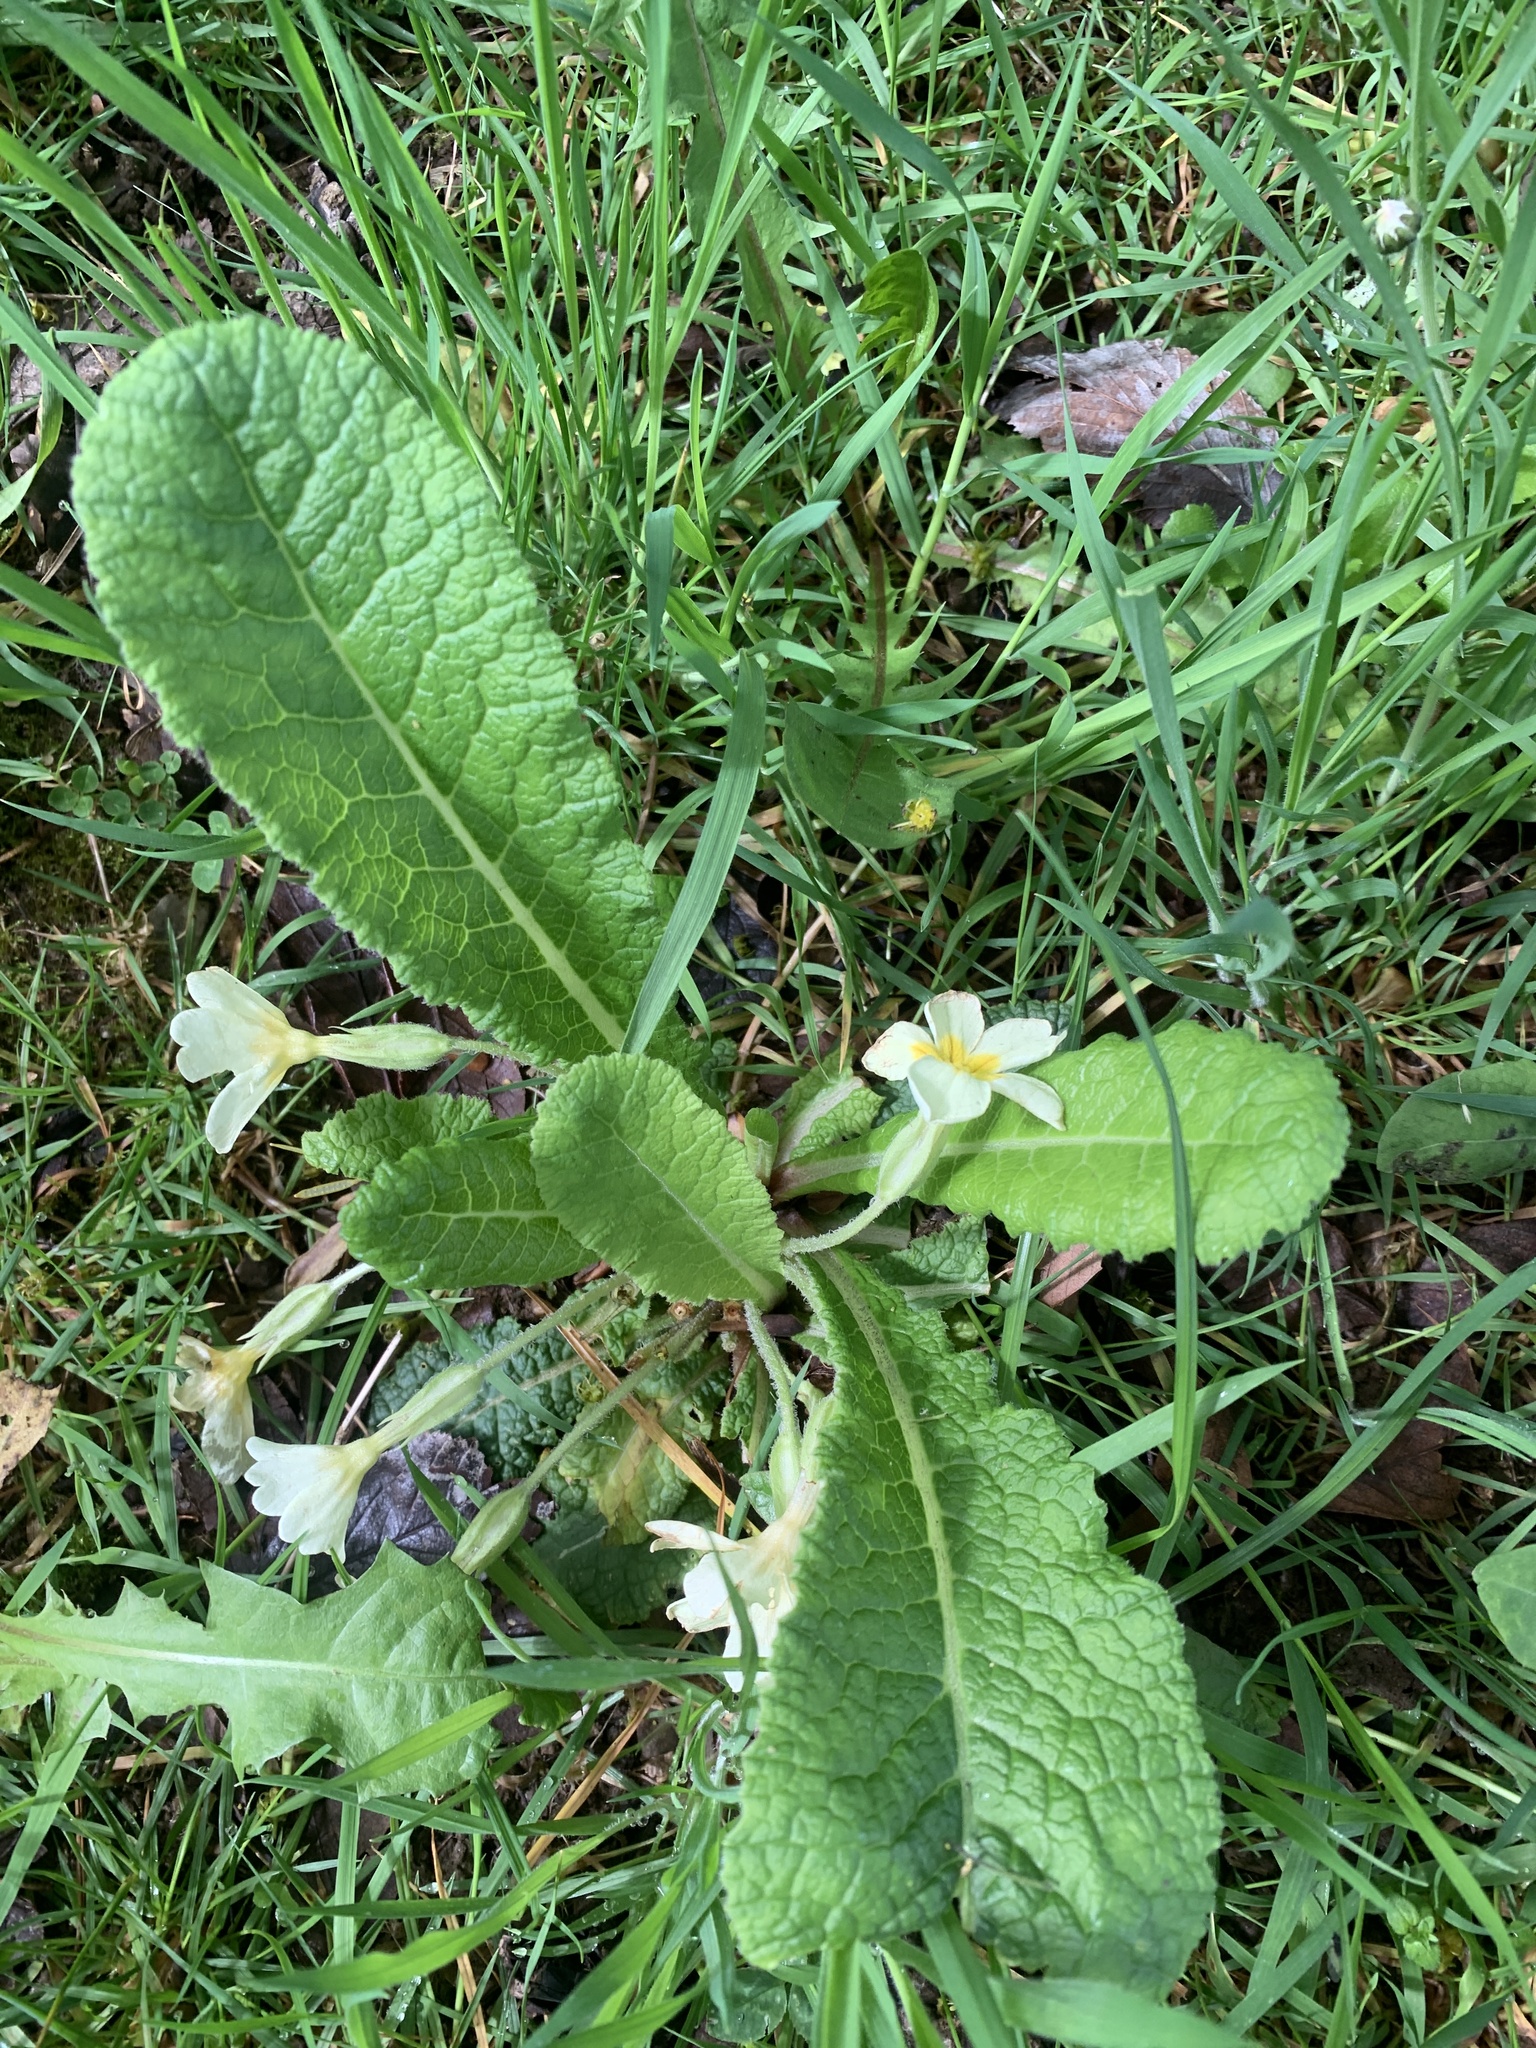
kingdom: Plantae
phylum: Tracheophyta
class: Magnoliopsida
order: Ericales
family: Primulaceae
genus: Primula
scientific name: Primula vulgaris
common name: Primrose
